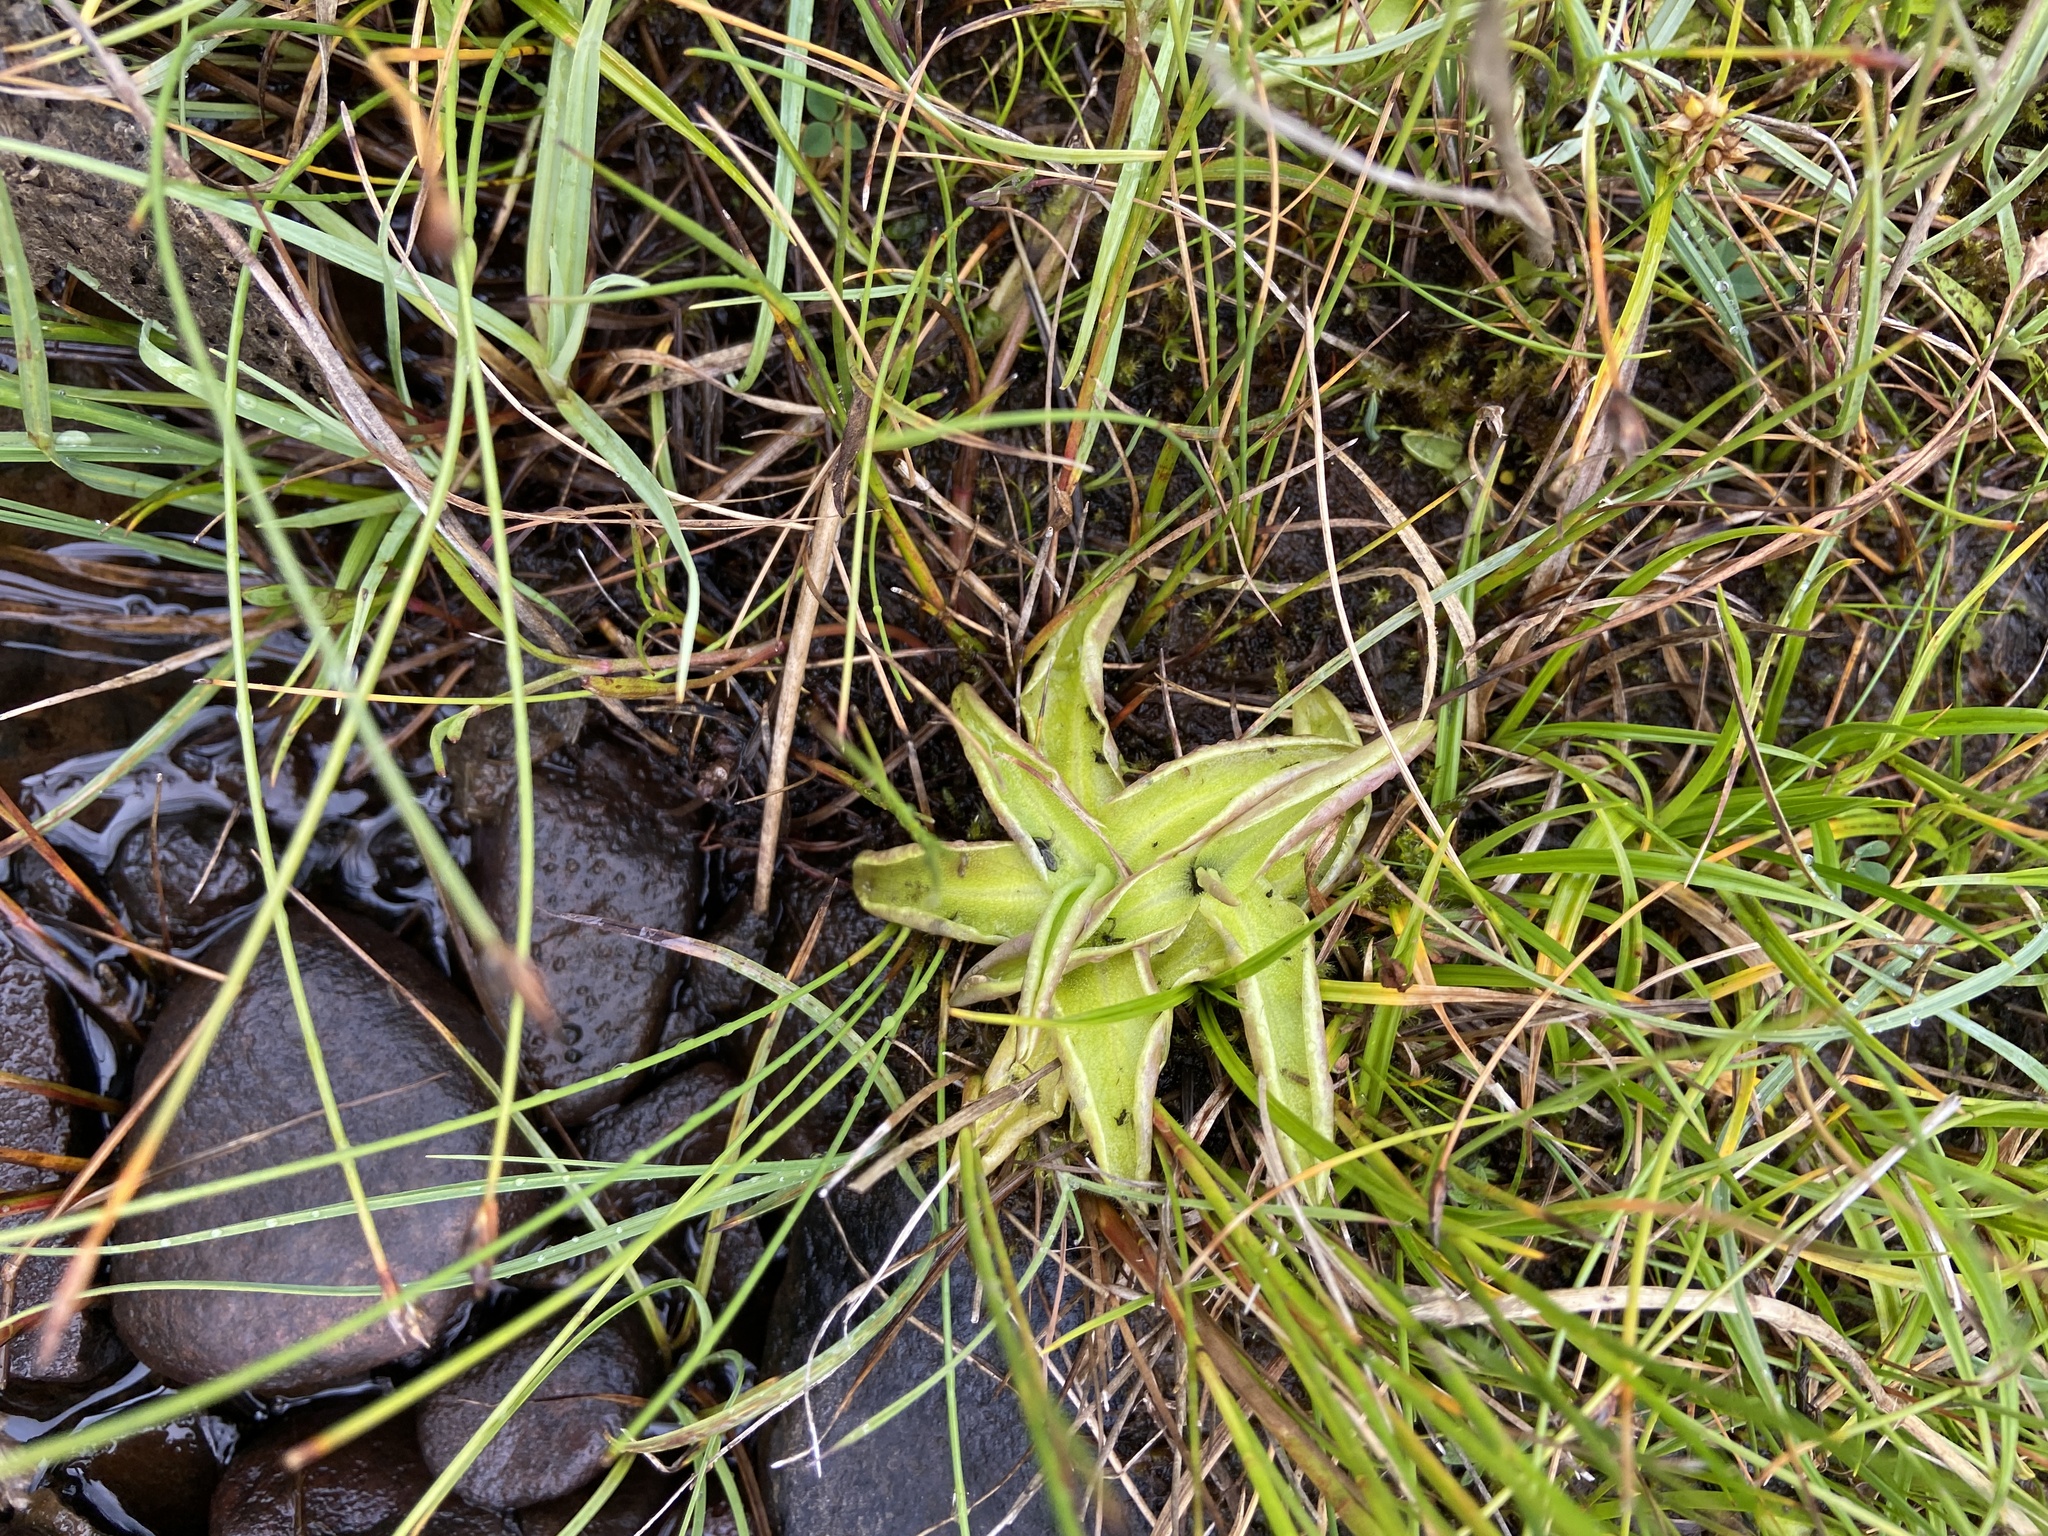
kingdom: Plantae
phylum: Tracheophyta
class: Magnoliopsida
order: Lamiales
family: Lentibulariaceae
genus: Pinguicula
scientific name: Pinguicula vulgaris
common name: Common butterwort
